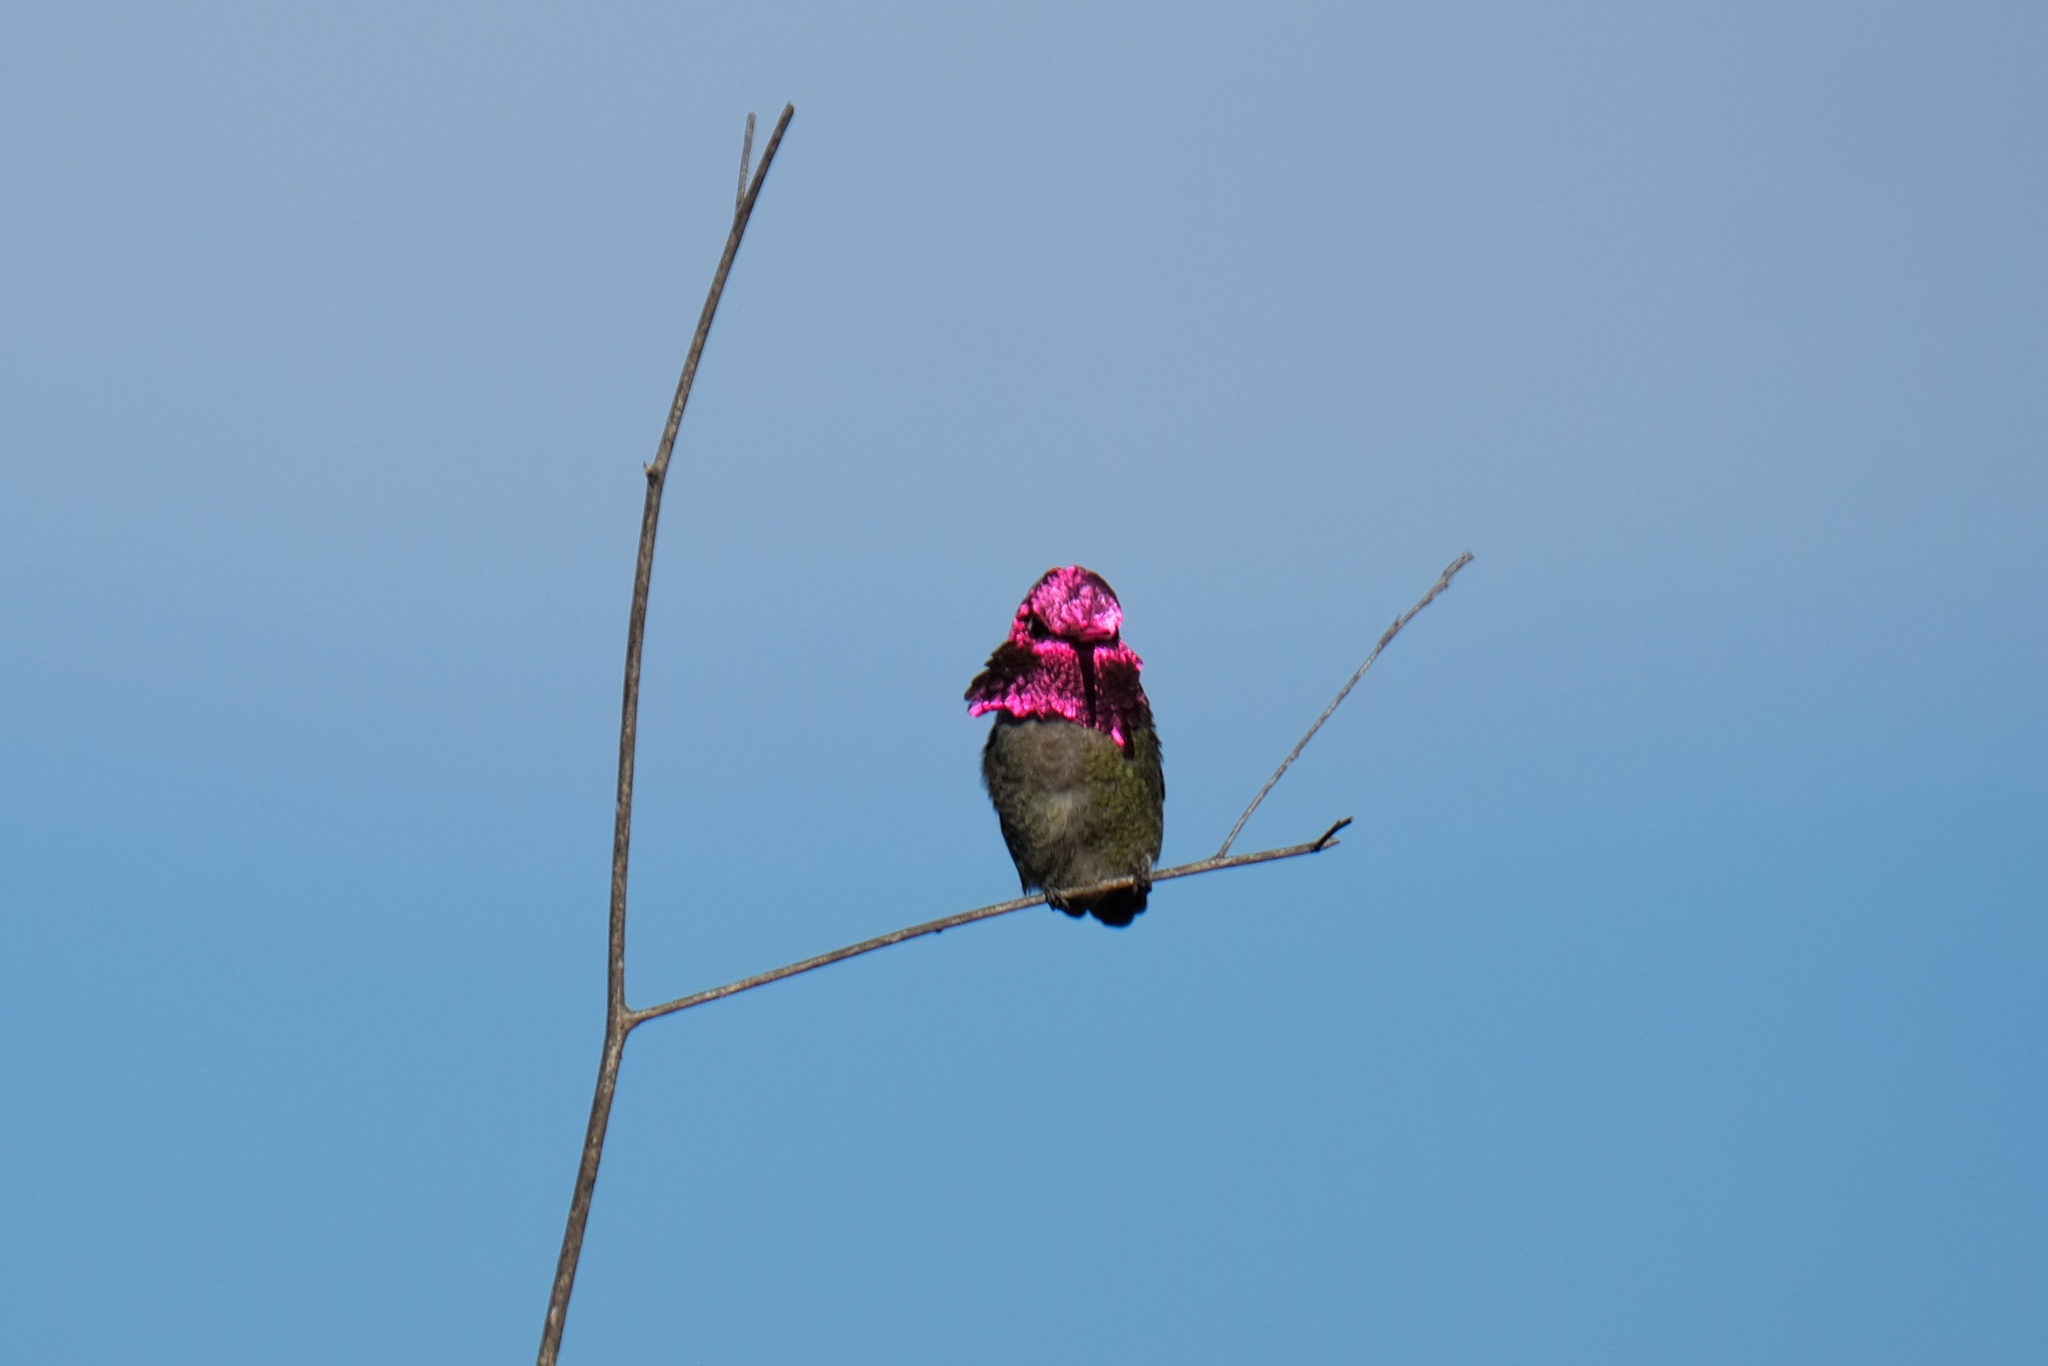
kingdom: Animalia
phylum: Chordata
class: Aves
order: Apodiformes
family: Trochilidae
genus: Calypte
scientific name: Calypte anna
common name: Anna's hummingbird
